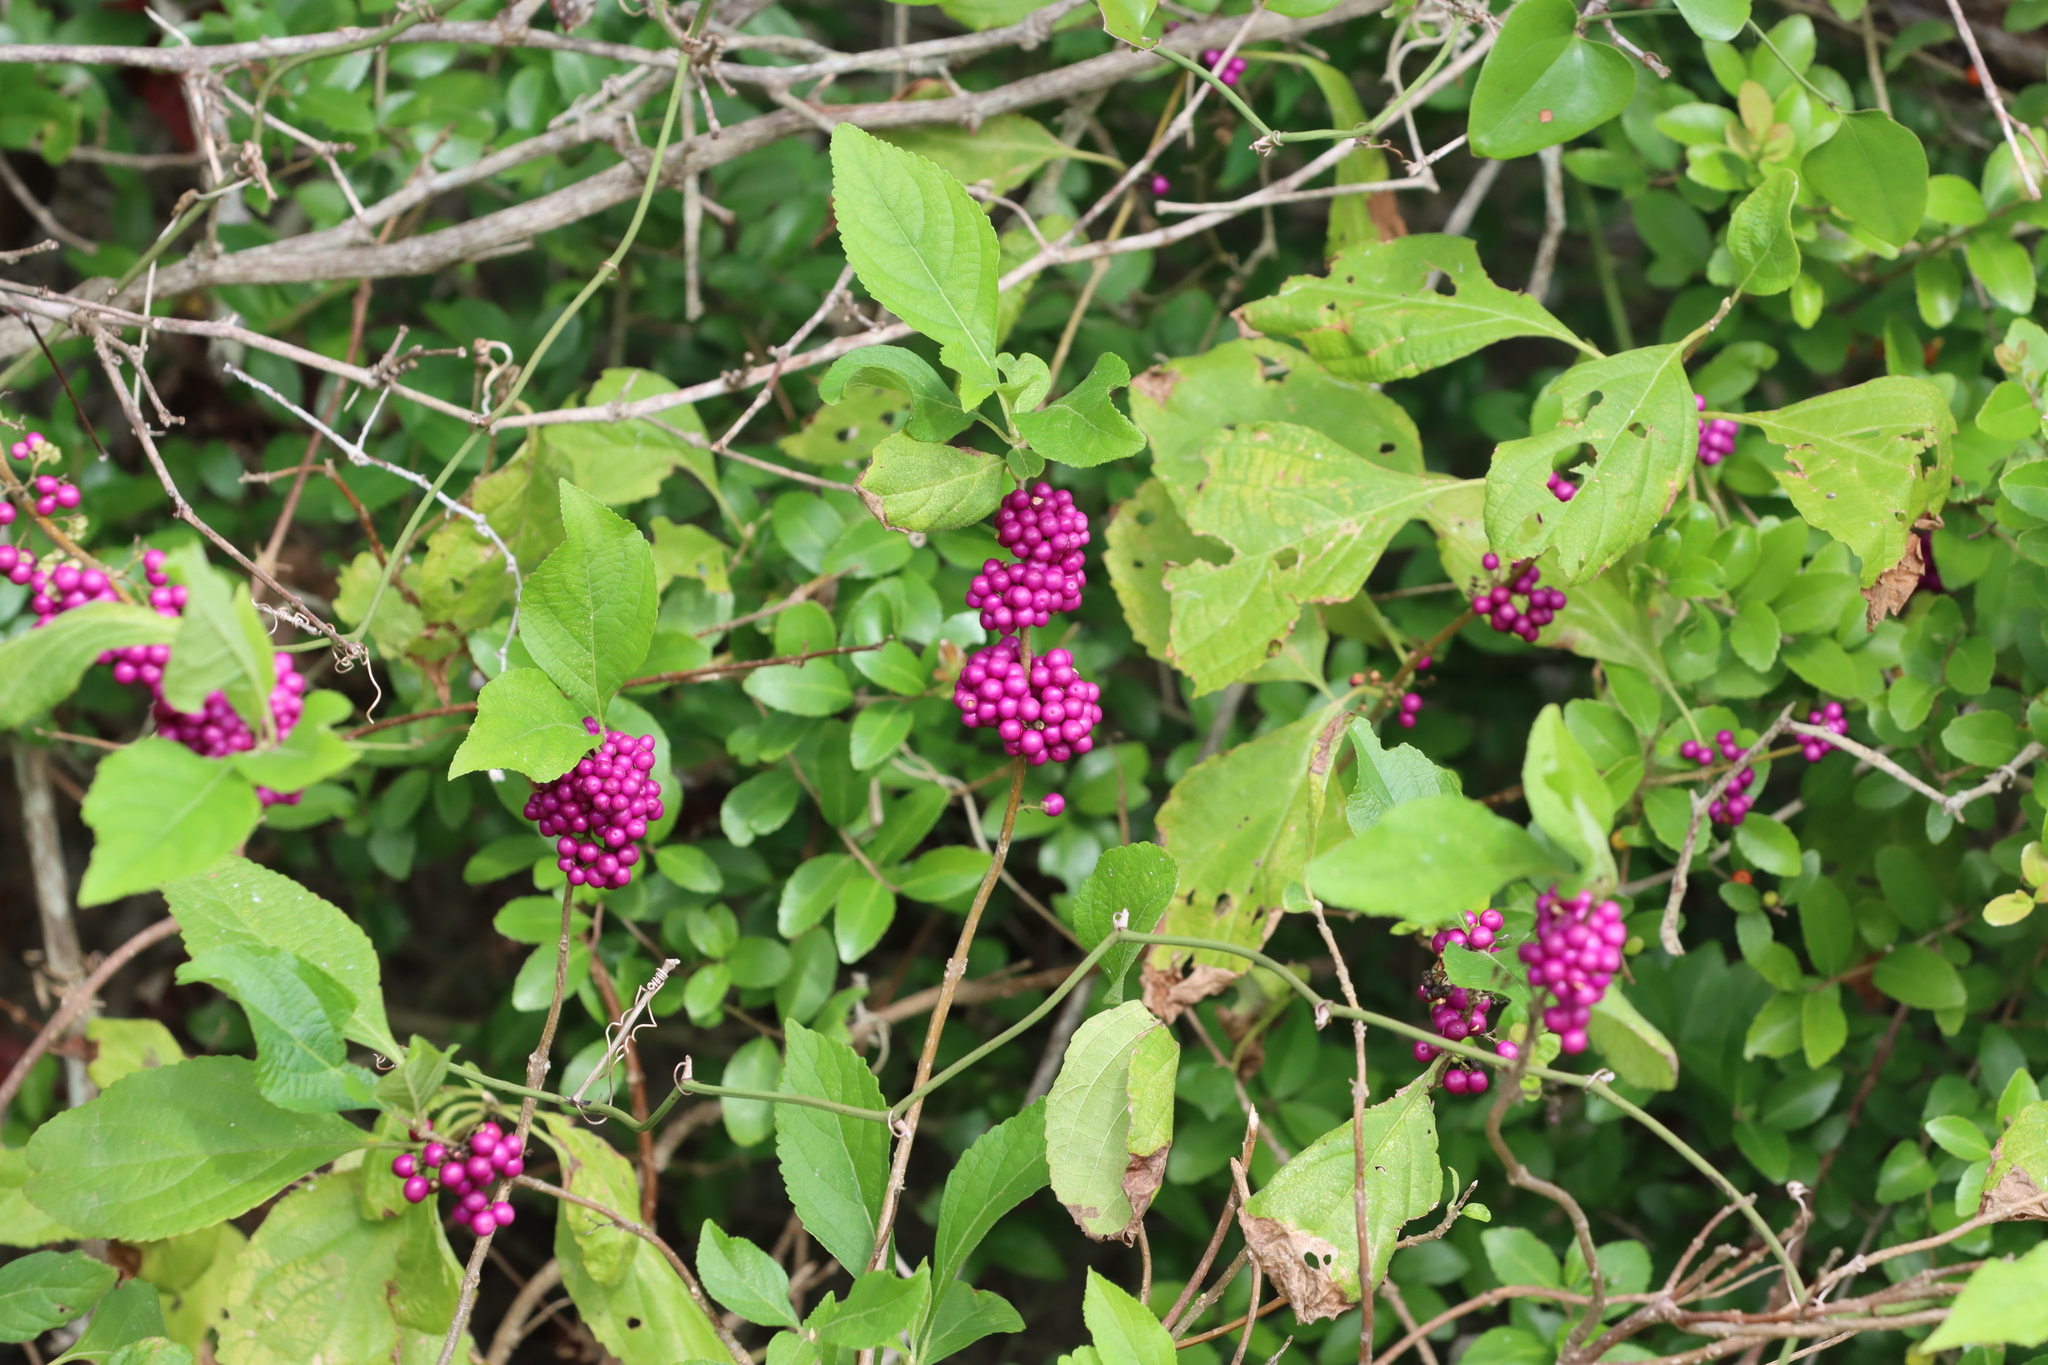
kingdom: Plantae
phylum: Tracheophyta
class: Magnoliopsida
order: Lamiales
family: Lamiaceae
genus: Callicarpa
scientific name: Callicarpa americana
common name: American beautyberry
